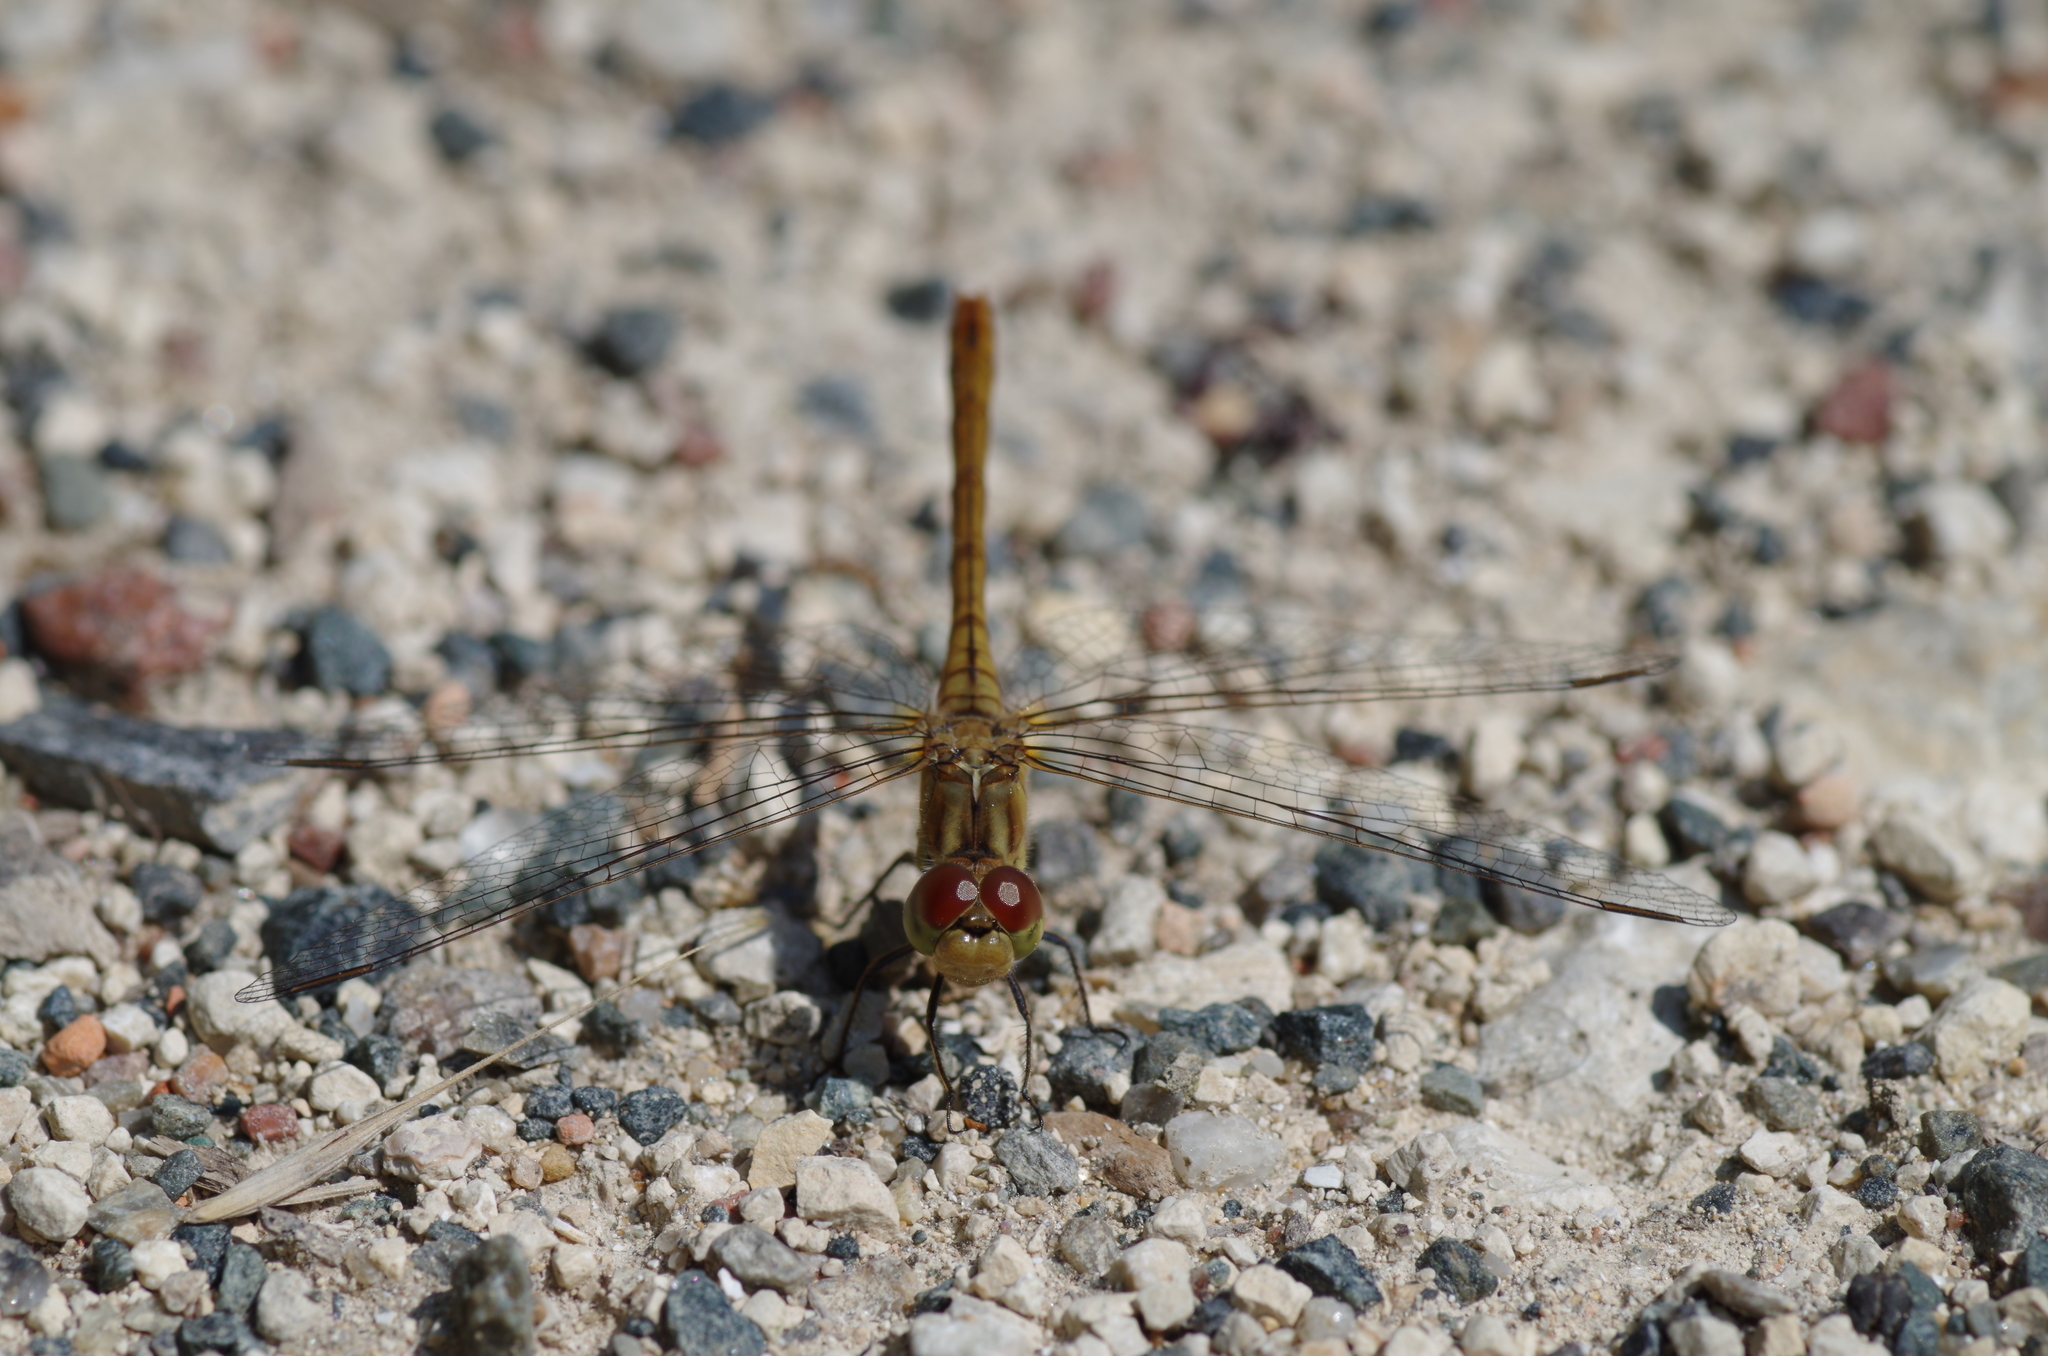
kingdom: Animalia
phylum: Arthropoda
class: Insecta
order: Odonata
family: Libellulidae
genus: Sympetrum
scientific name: Sympetrum meridionale
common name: Southern darter
